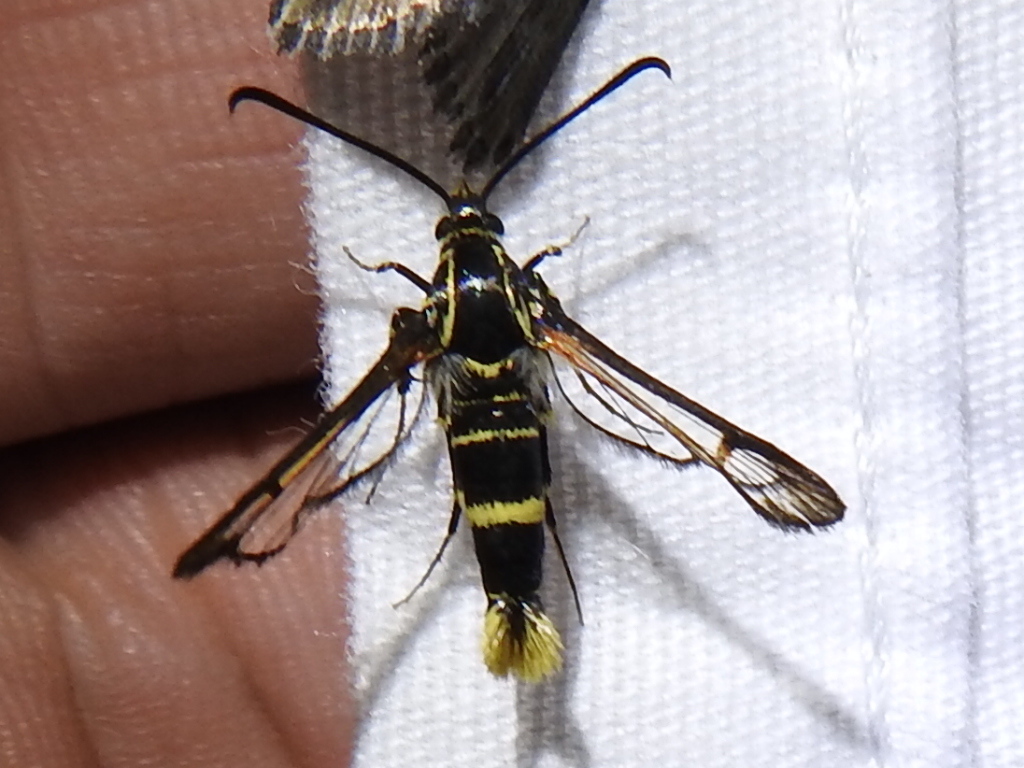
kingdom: Animalia
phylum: Arthropoda
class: Insecta
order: Lepidoptera
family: Sesiidae
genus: Carmenta
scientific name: Carmenta arizonae
